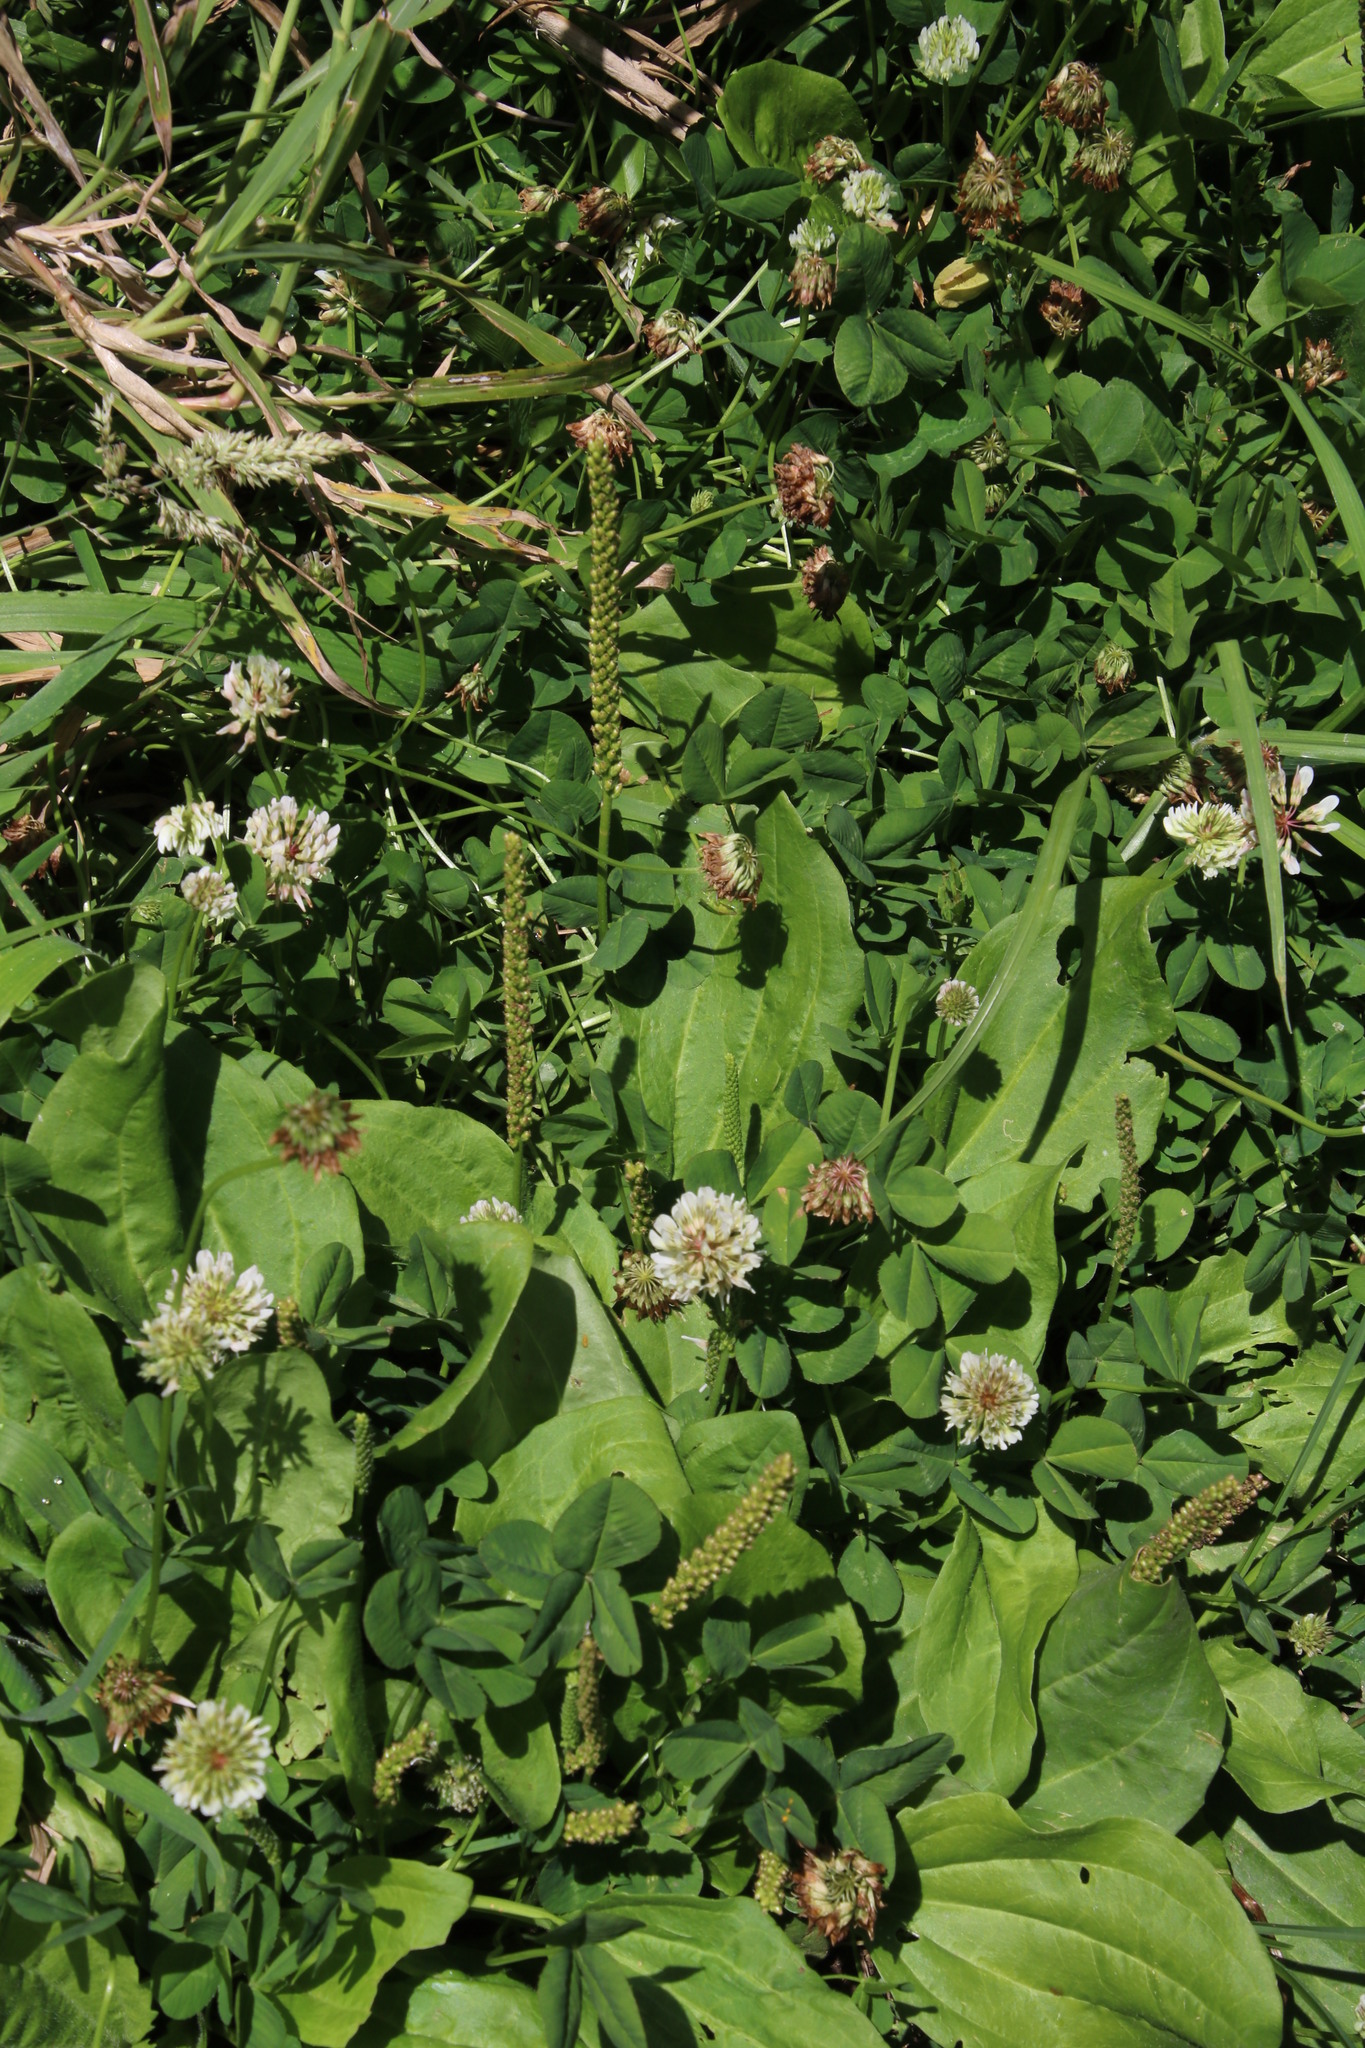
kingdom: Plantae
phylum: Tracheophyta
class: Magnoliopsida
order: Lamiales
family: Plantaginaceae
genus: Plantago
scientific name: Plantago major
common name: Common plantain
